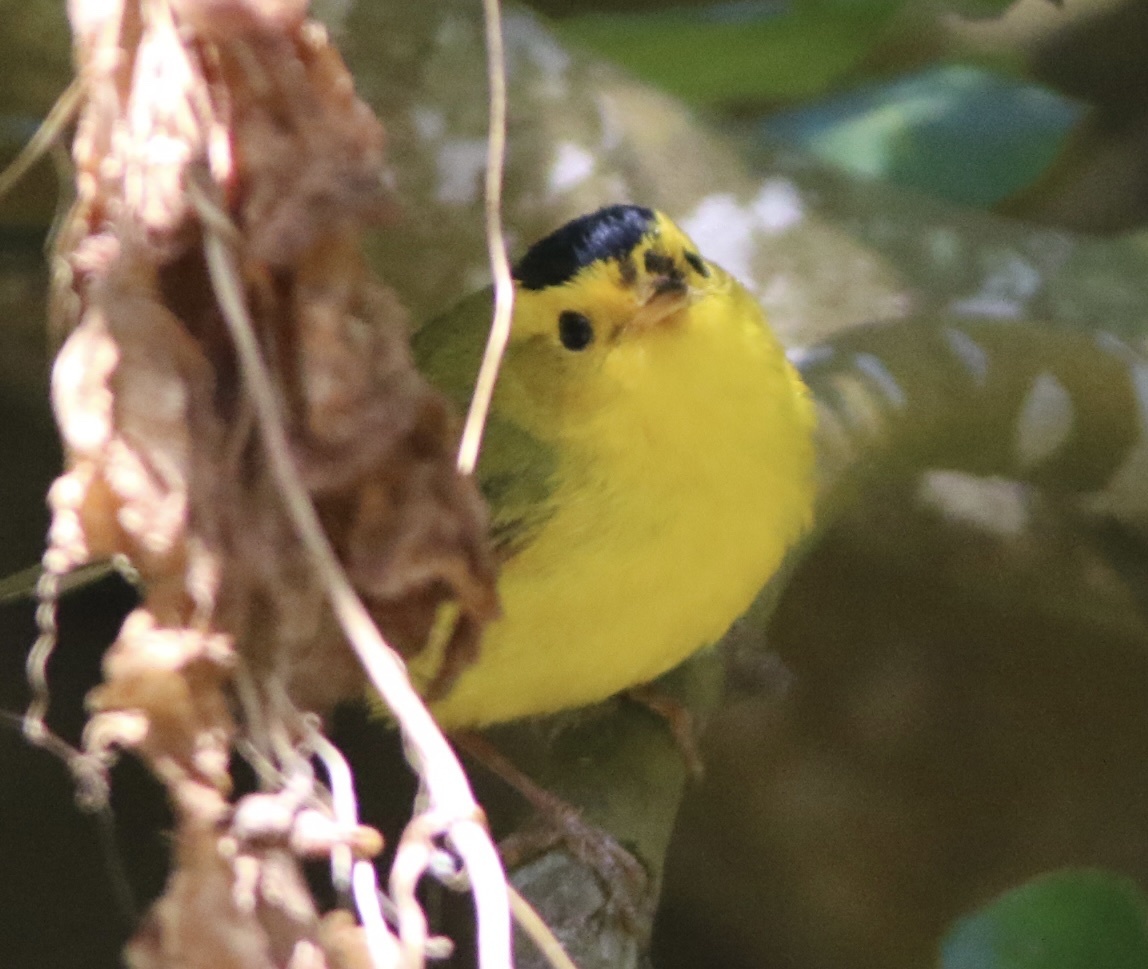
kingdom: Animalia
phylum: Chordata
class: Aves
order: Passeriformes
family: Parulidae
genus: Cardellina
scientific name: Cardellina pusilla
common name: Wilson's warbler
